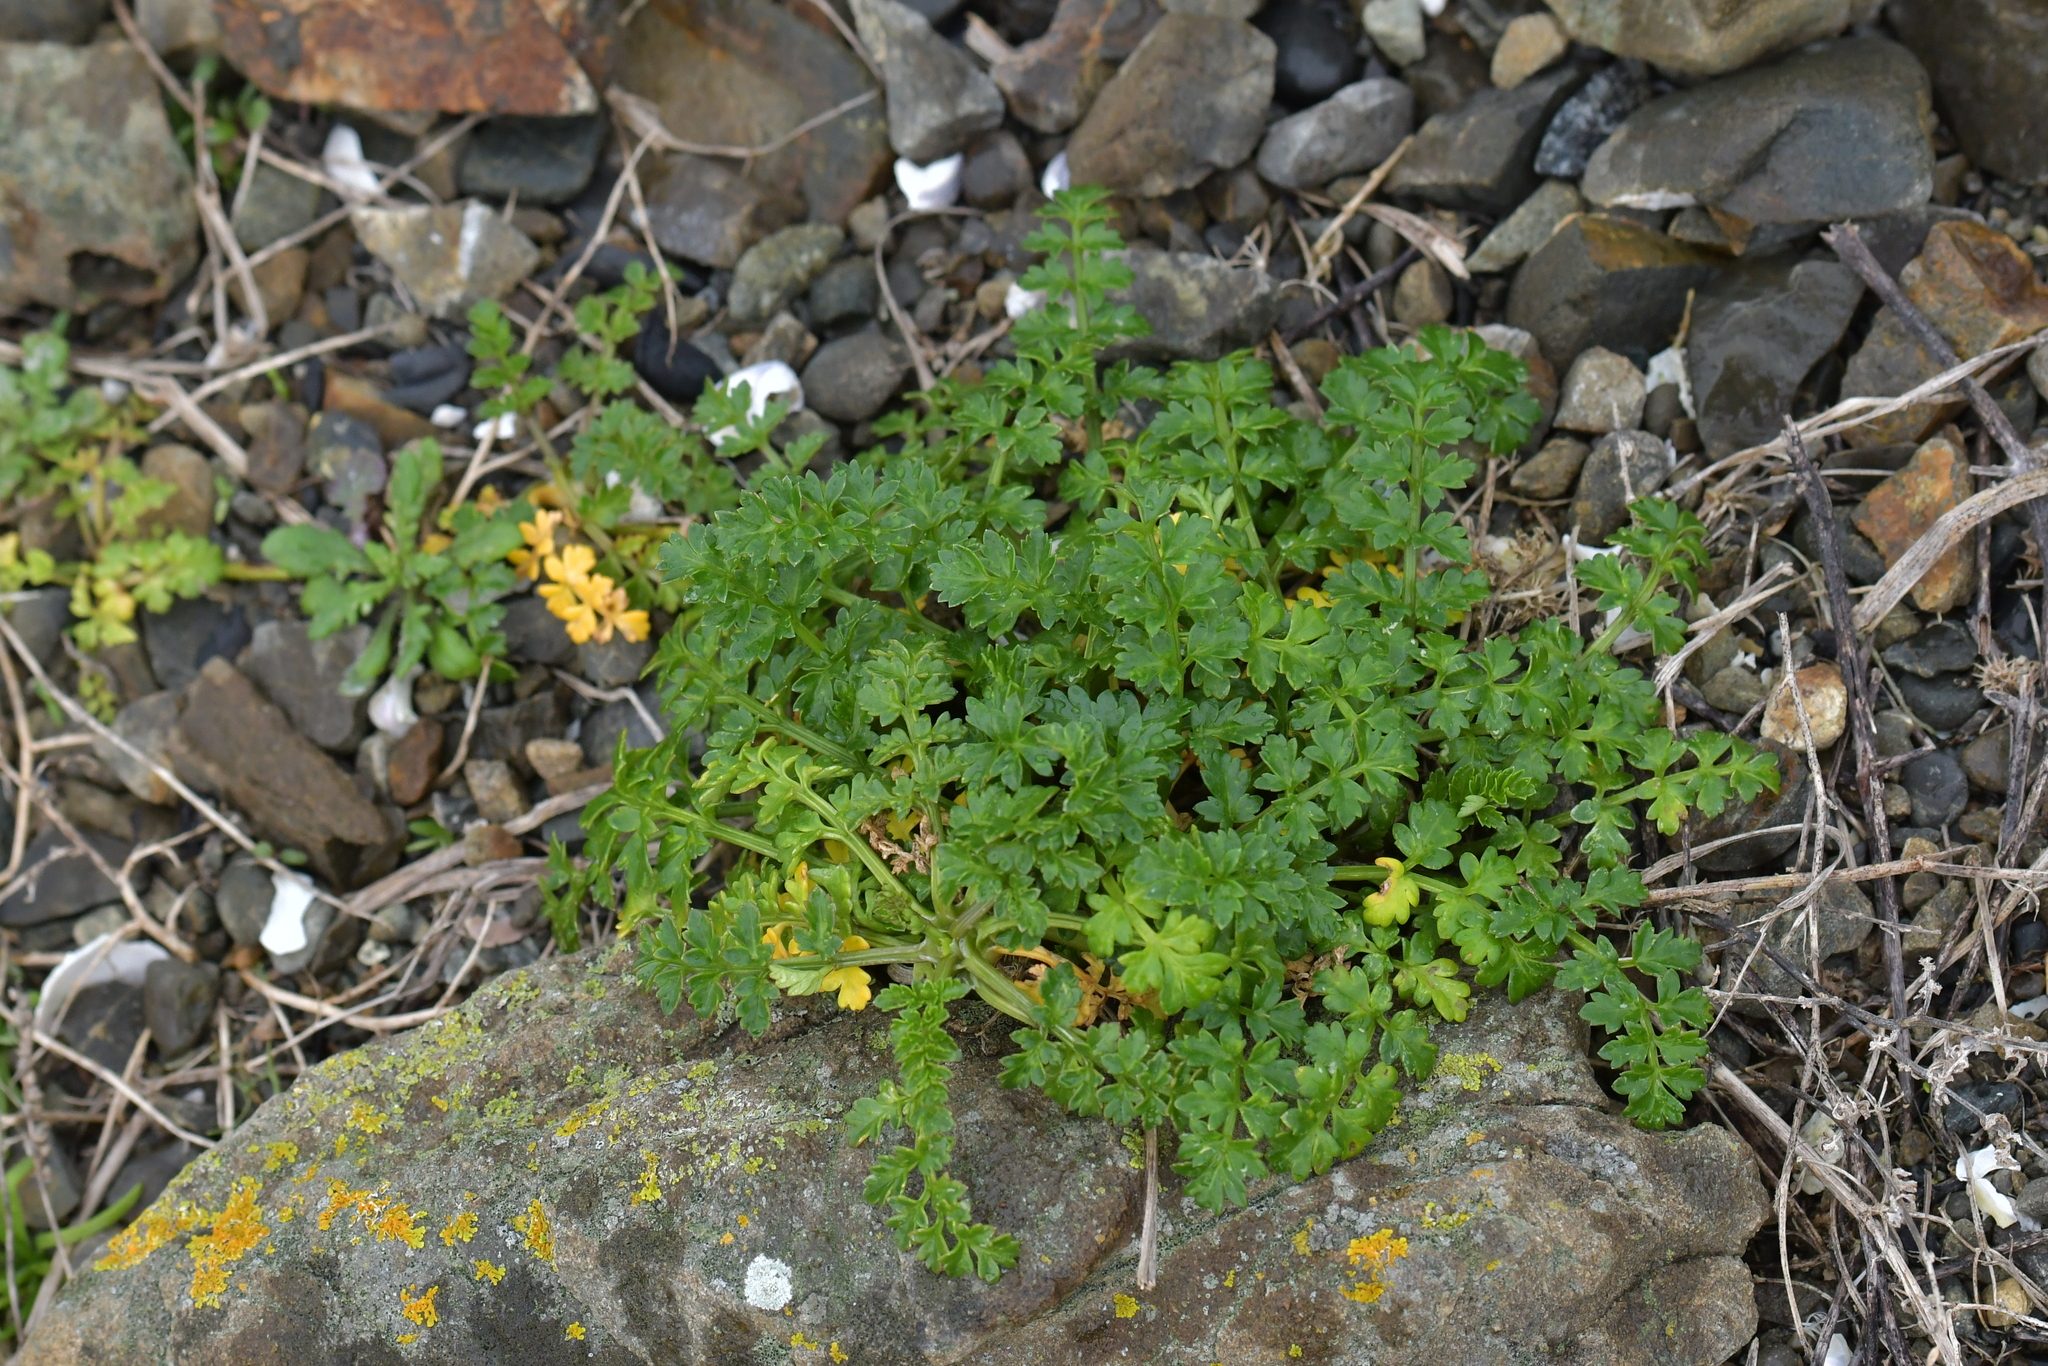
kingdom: Plantae
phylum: Tracheophyta
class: Magnoliopsida
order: Apiales
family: Apiaceae
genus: Apium
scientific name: Apium prostratum
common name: Prostrate marshwort
